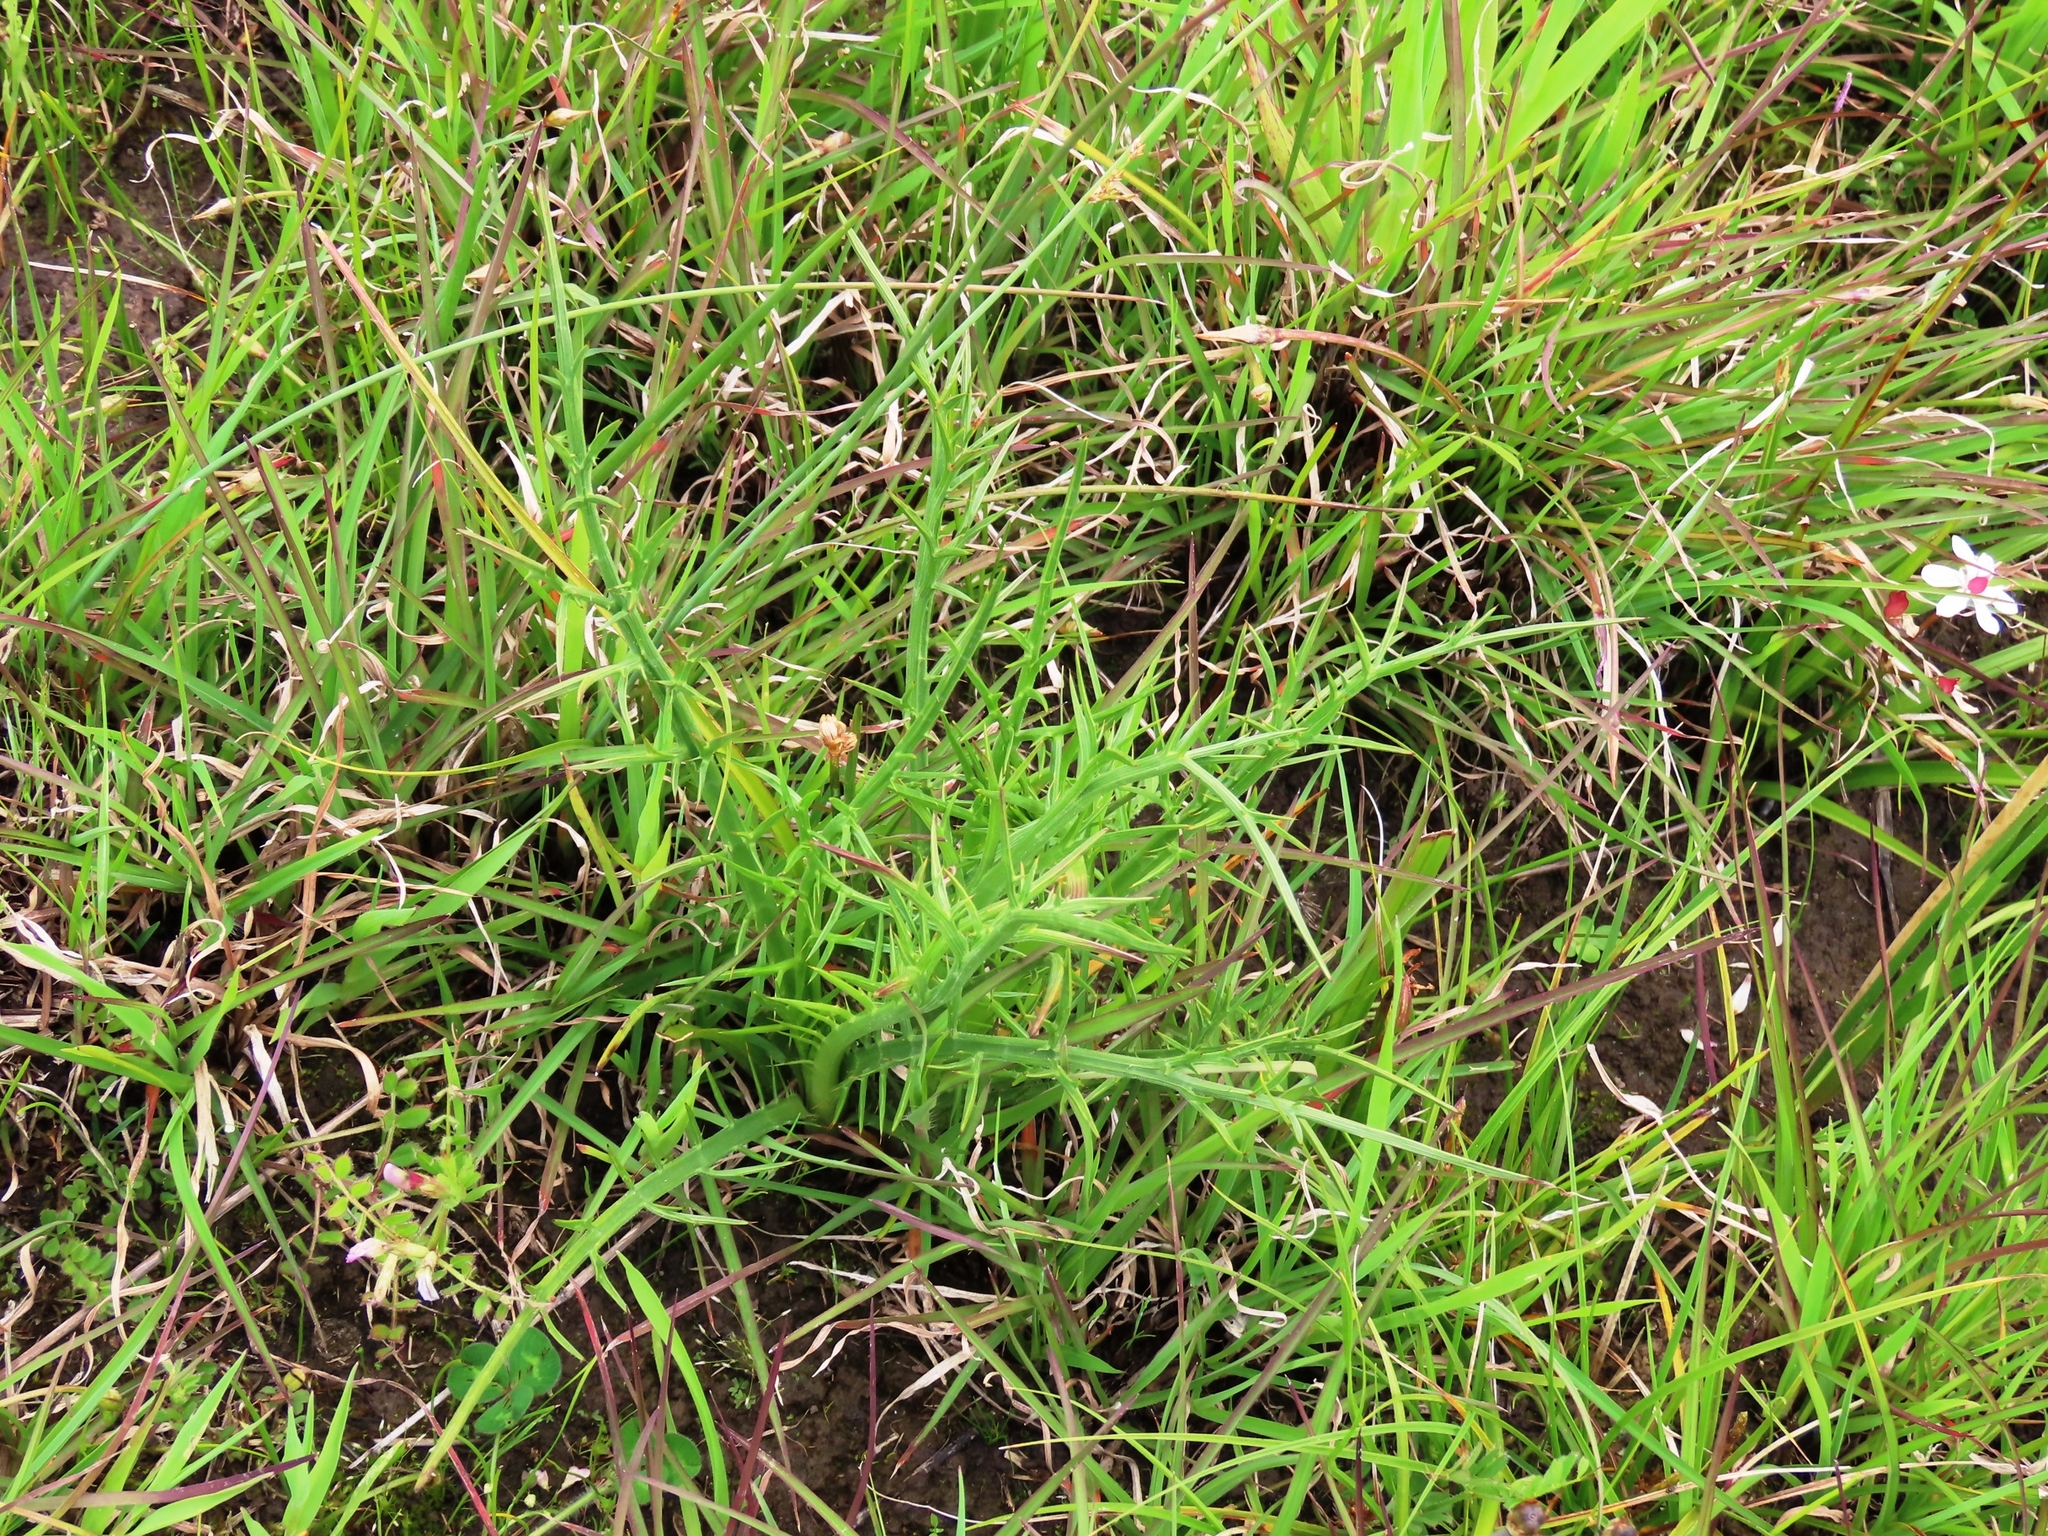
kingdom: Plantae
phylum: Tracheophyta
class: Magnoliopsida
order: Apiales
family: Apiaceae
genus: Eryngium
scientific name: Eryngium ovinum
